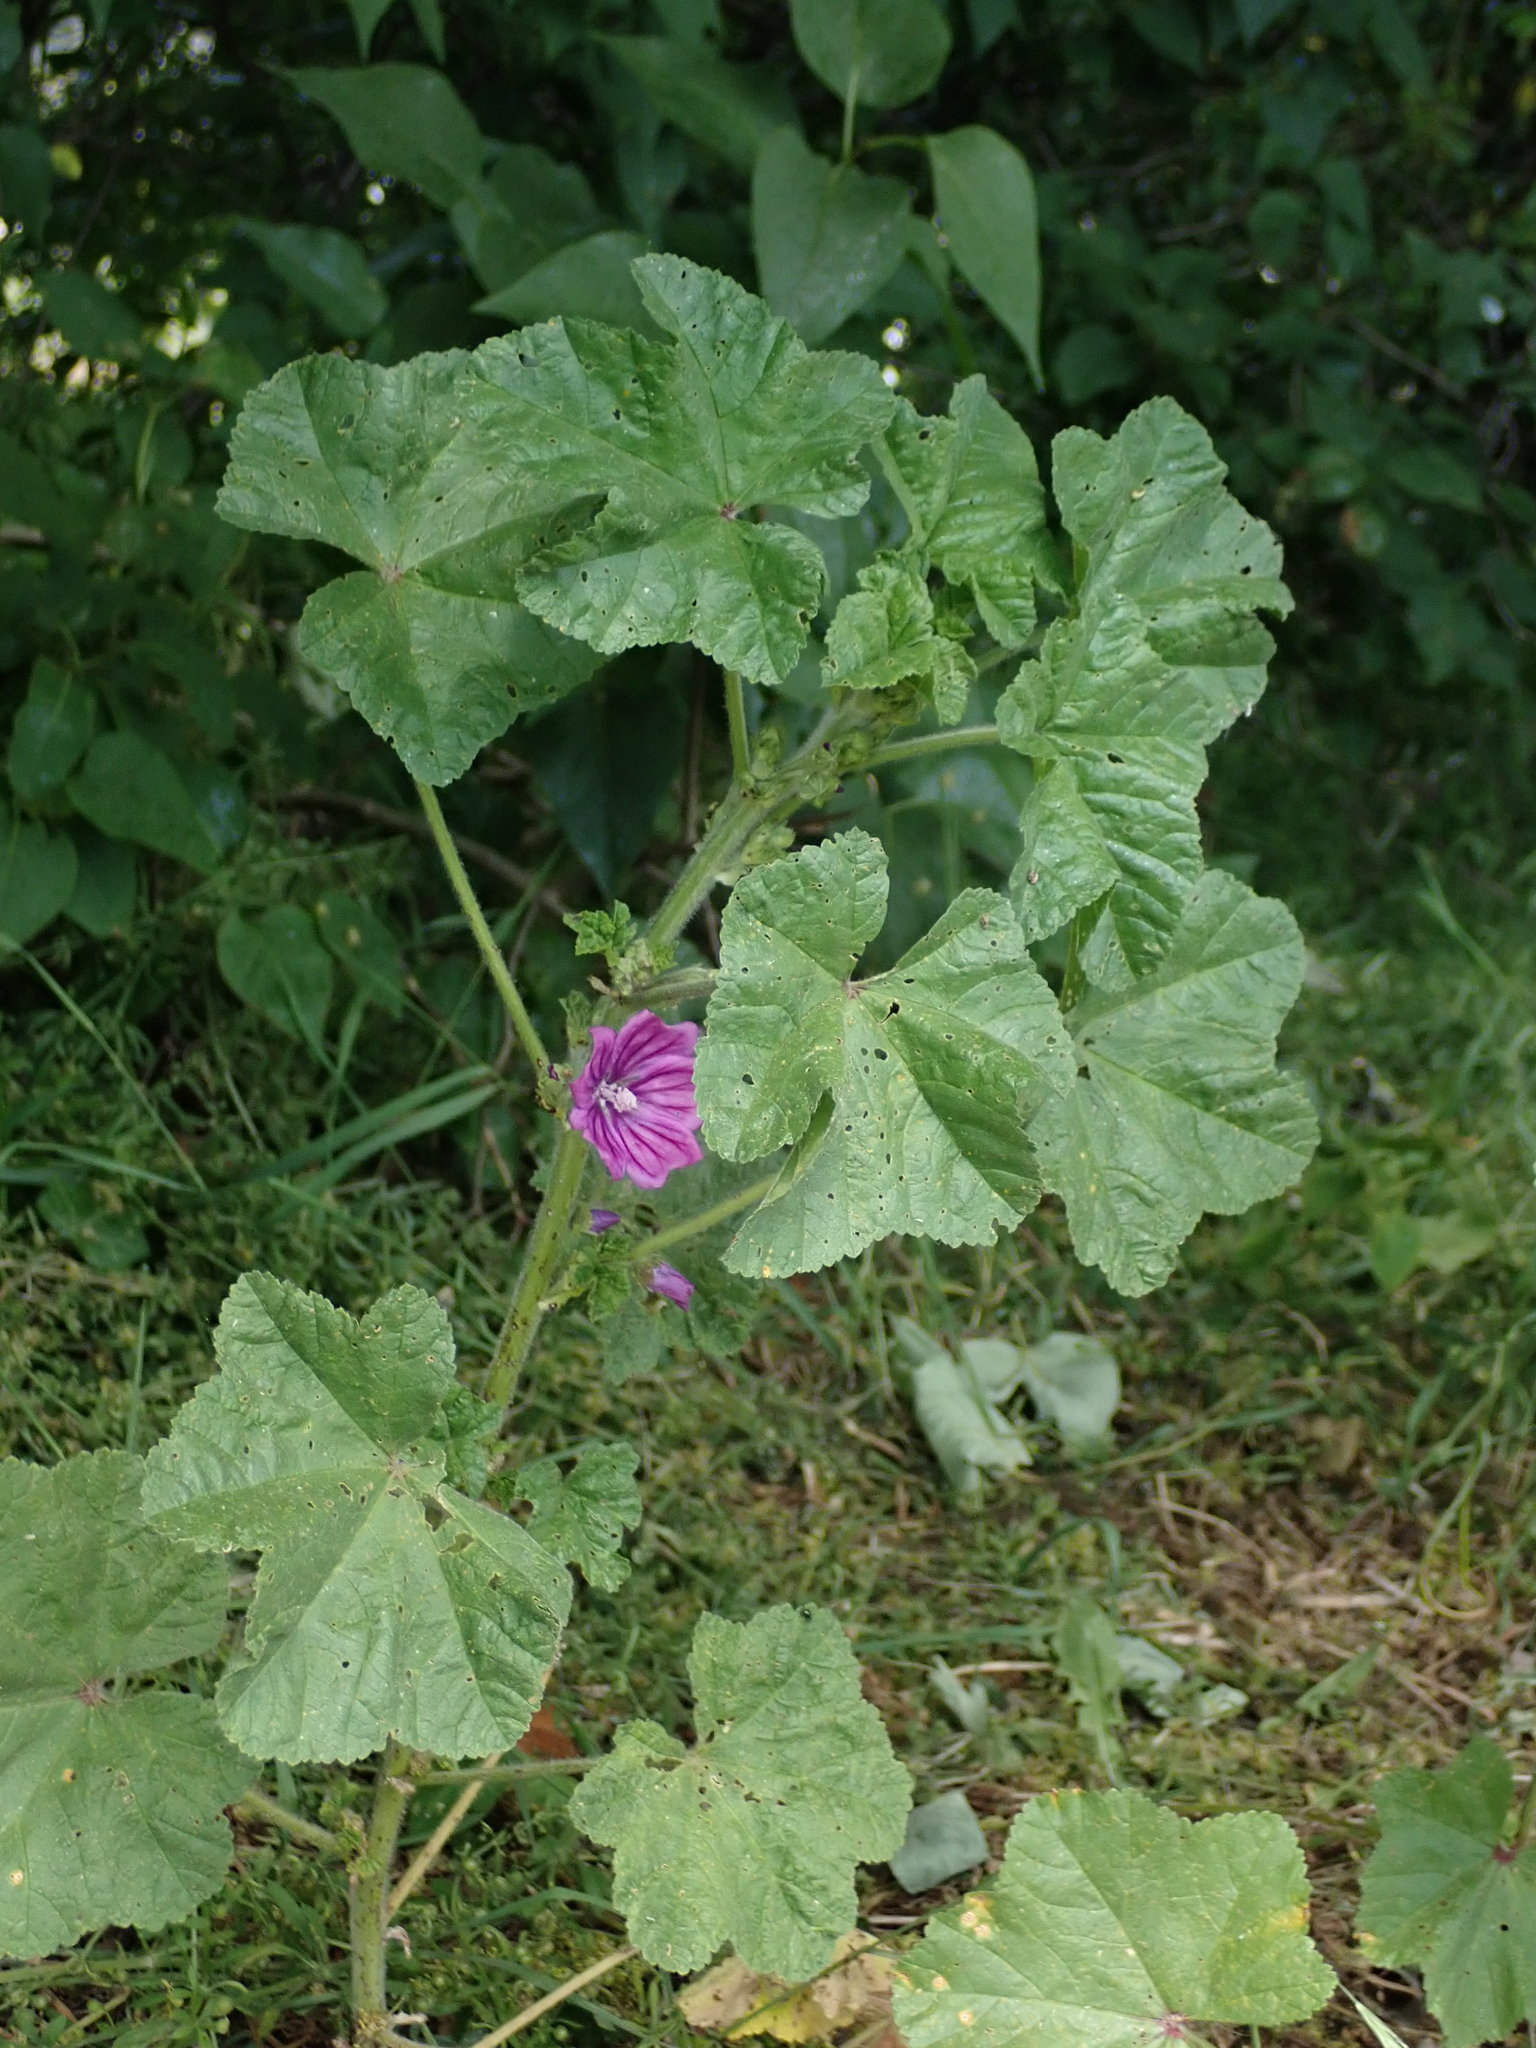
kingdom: Plantae
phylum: Tracheophyta
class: Magnoliopsida
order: Malvales
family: Malvaceae
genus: Malva
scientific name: Malva sylvestris
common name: Common mallow
